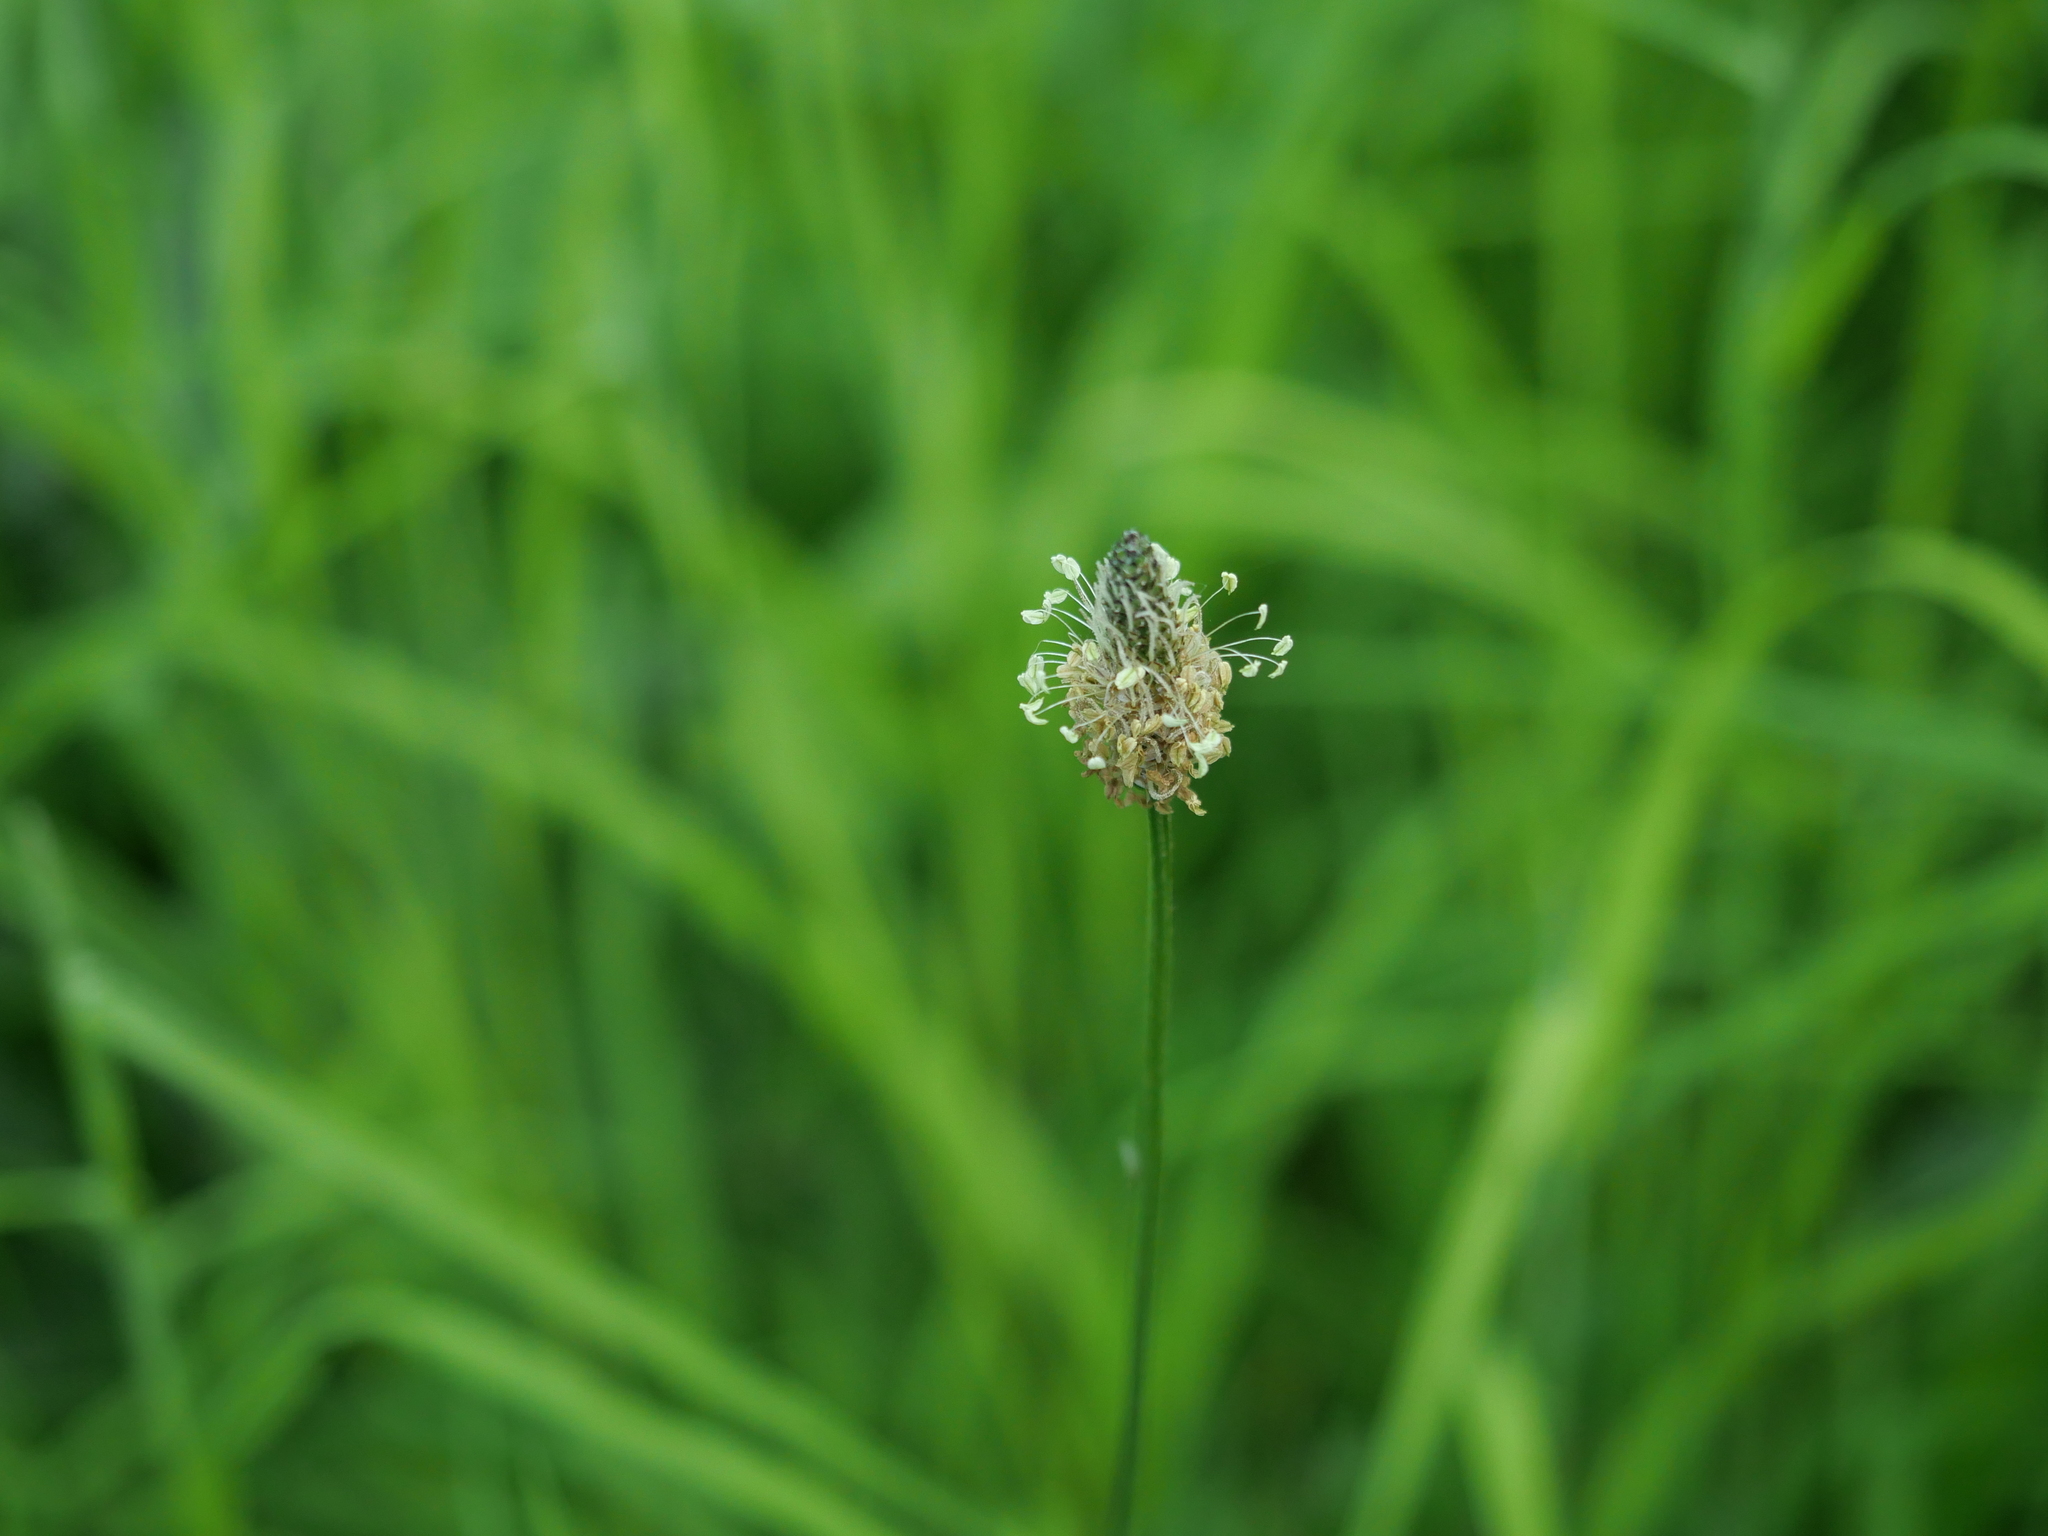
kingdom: Plantae
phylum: Tracheophyta
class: Magnoliopsida
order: Lamiales
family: Plantaginaceae
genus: Plantago
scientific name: Plantago lanceolata
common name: Ribwort plantain
